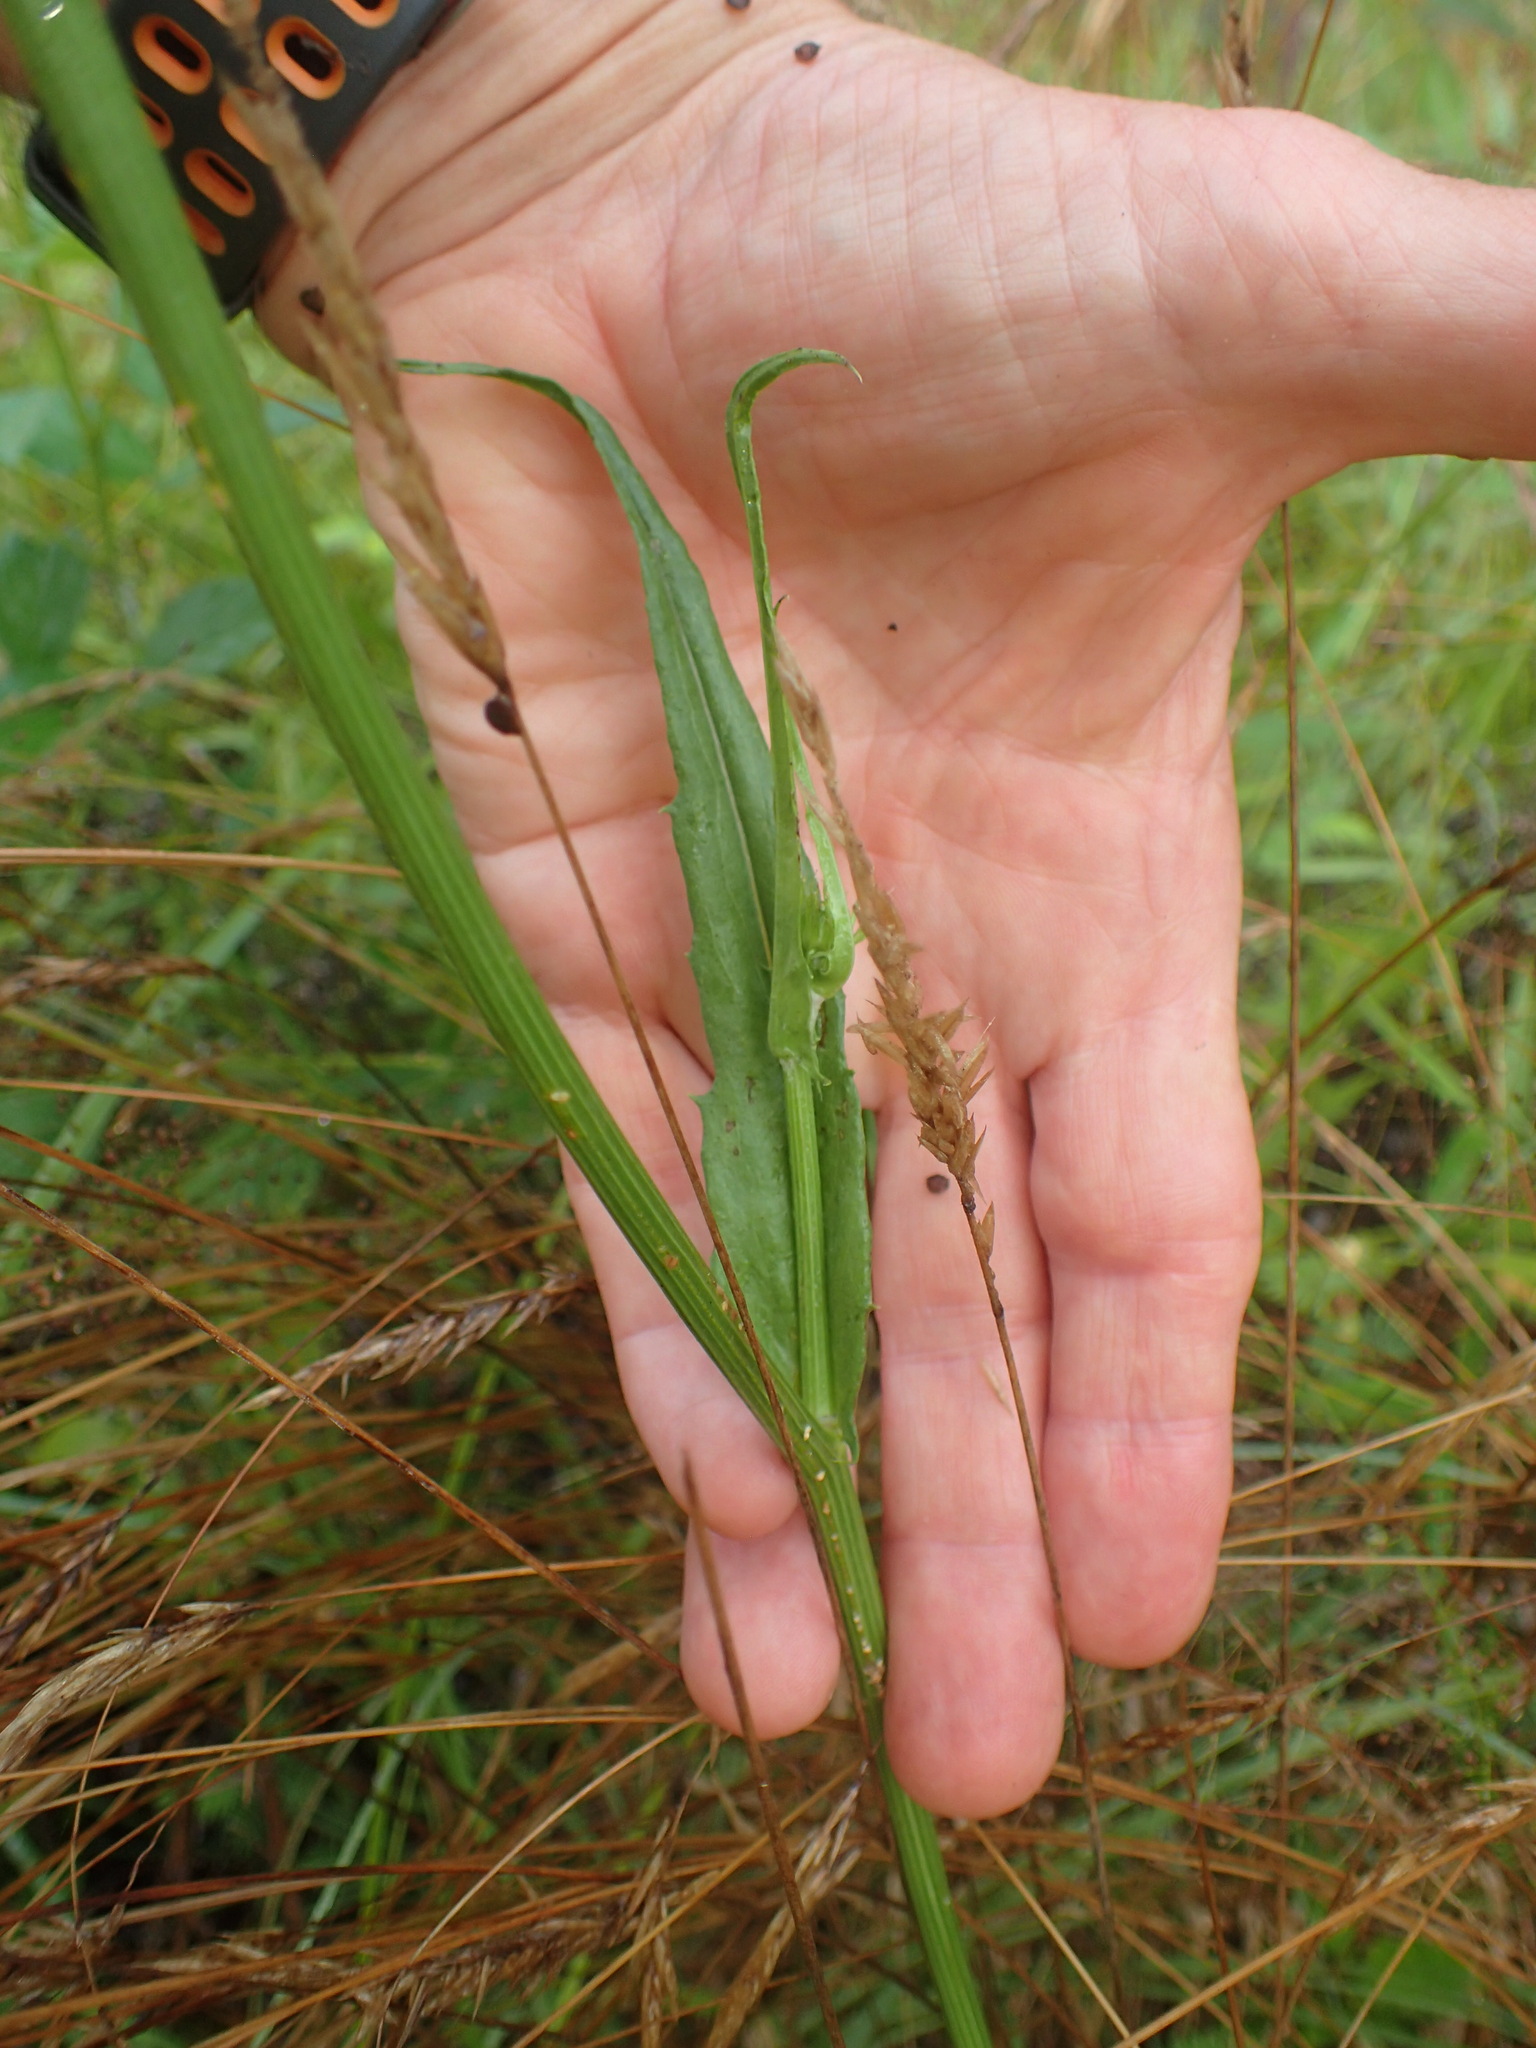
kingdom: Plantae
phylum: Tracheophyta
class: Magnoliopsida
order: Asterales
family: Asteraceae
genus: Pyrrhopappus
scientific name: Pyrrhopappus carolinianus
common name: Carolina desert-chicory
